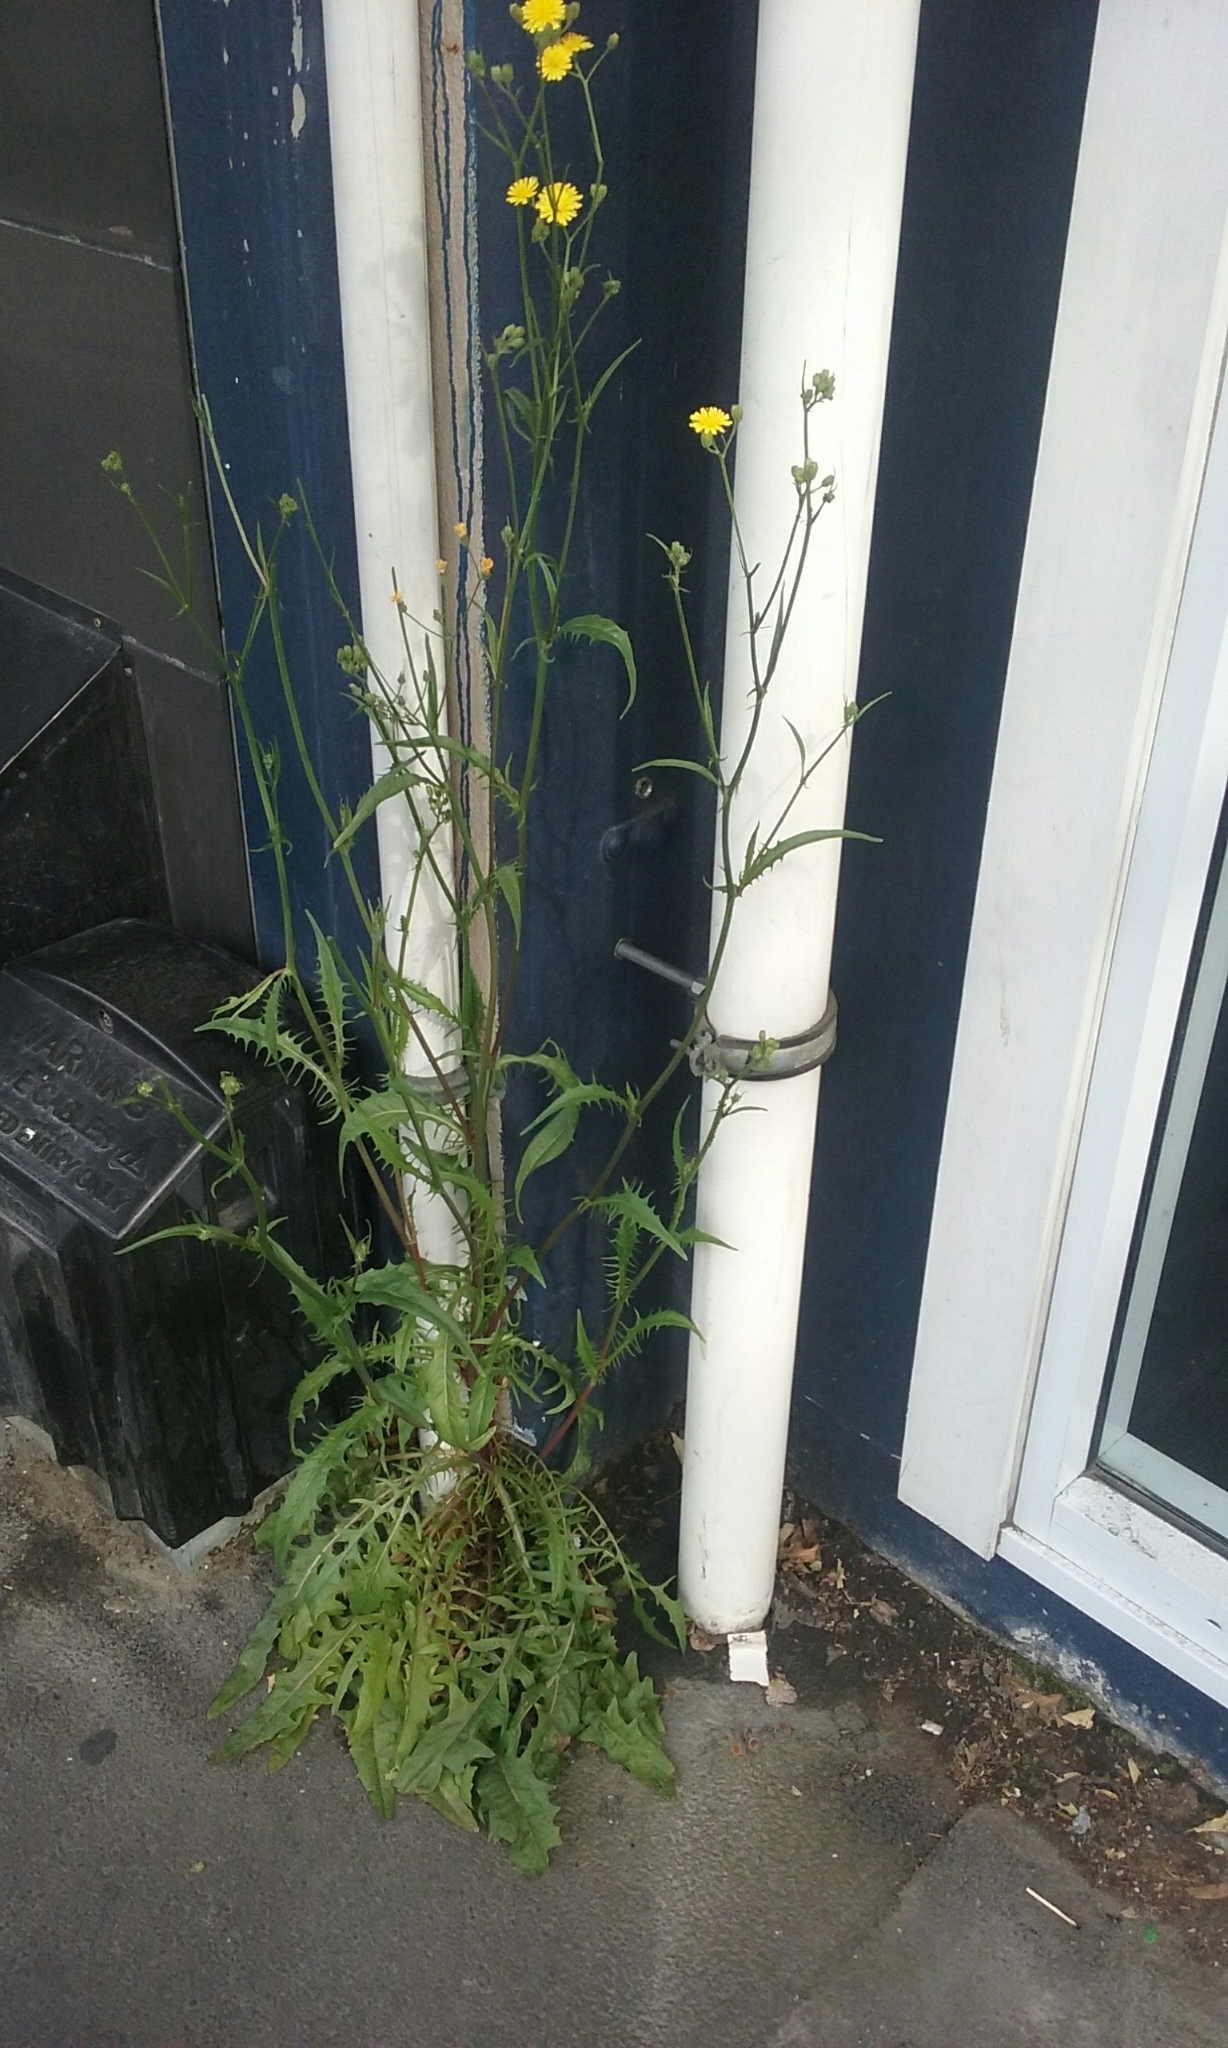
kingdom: Plantae
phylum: Tracheophyta
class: Magnoliopsida
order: Asterales
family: Asteraceae
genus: Crepis
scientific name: Crepis capillaris
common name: Smooth hawksbeard
